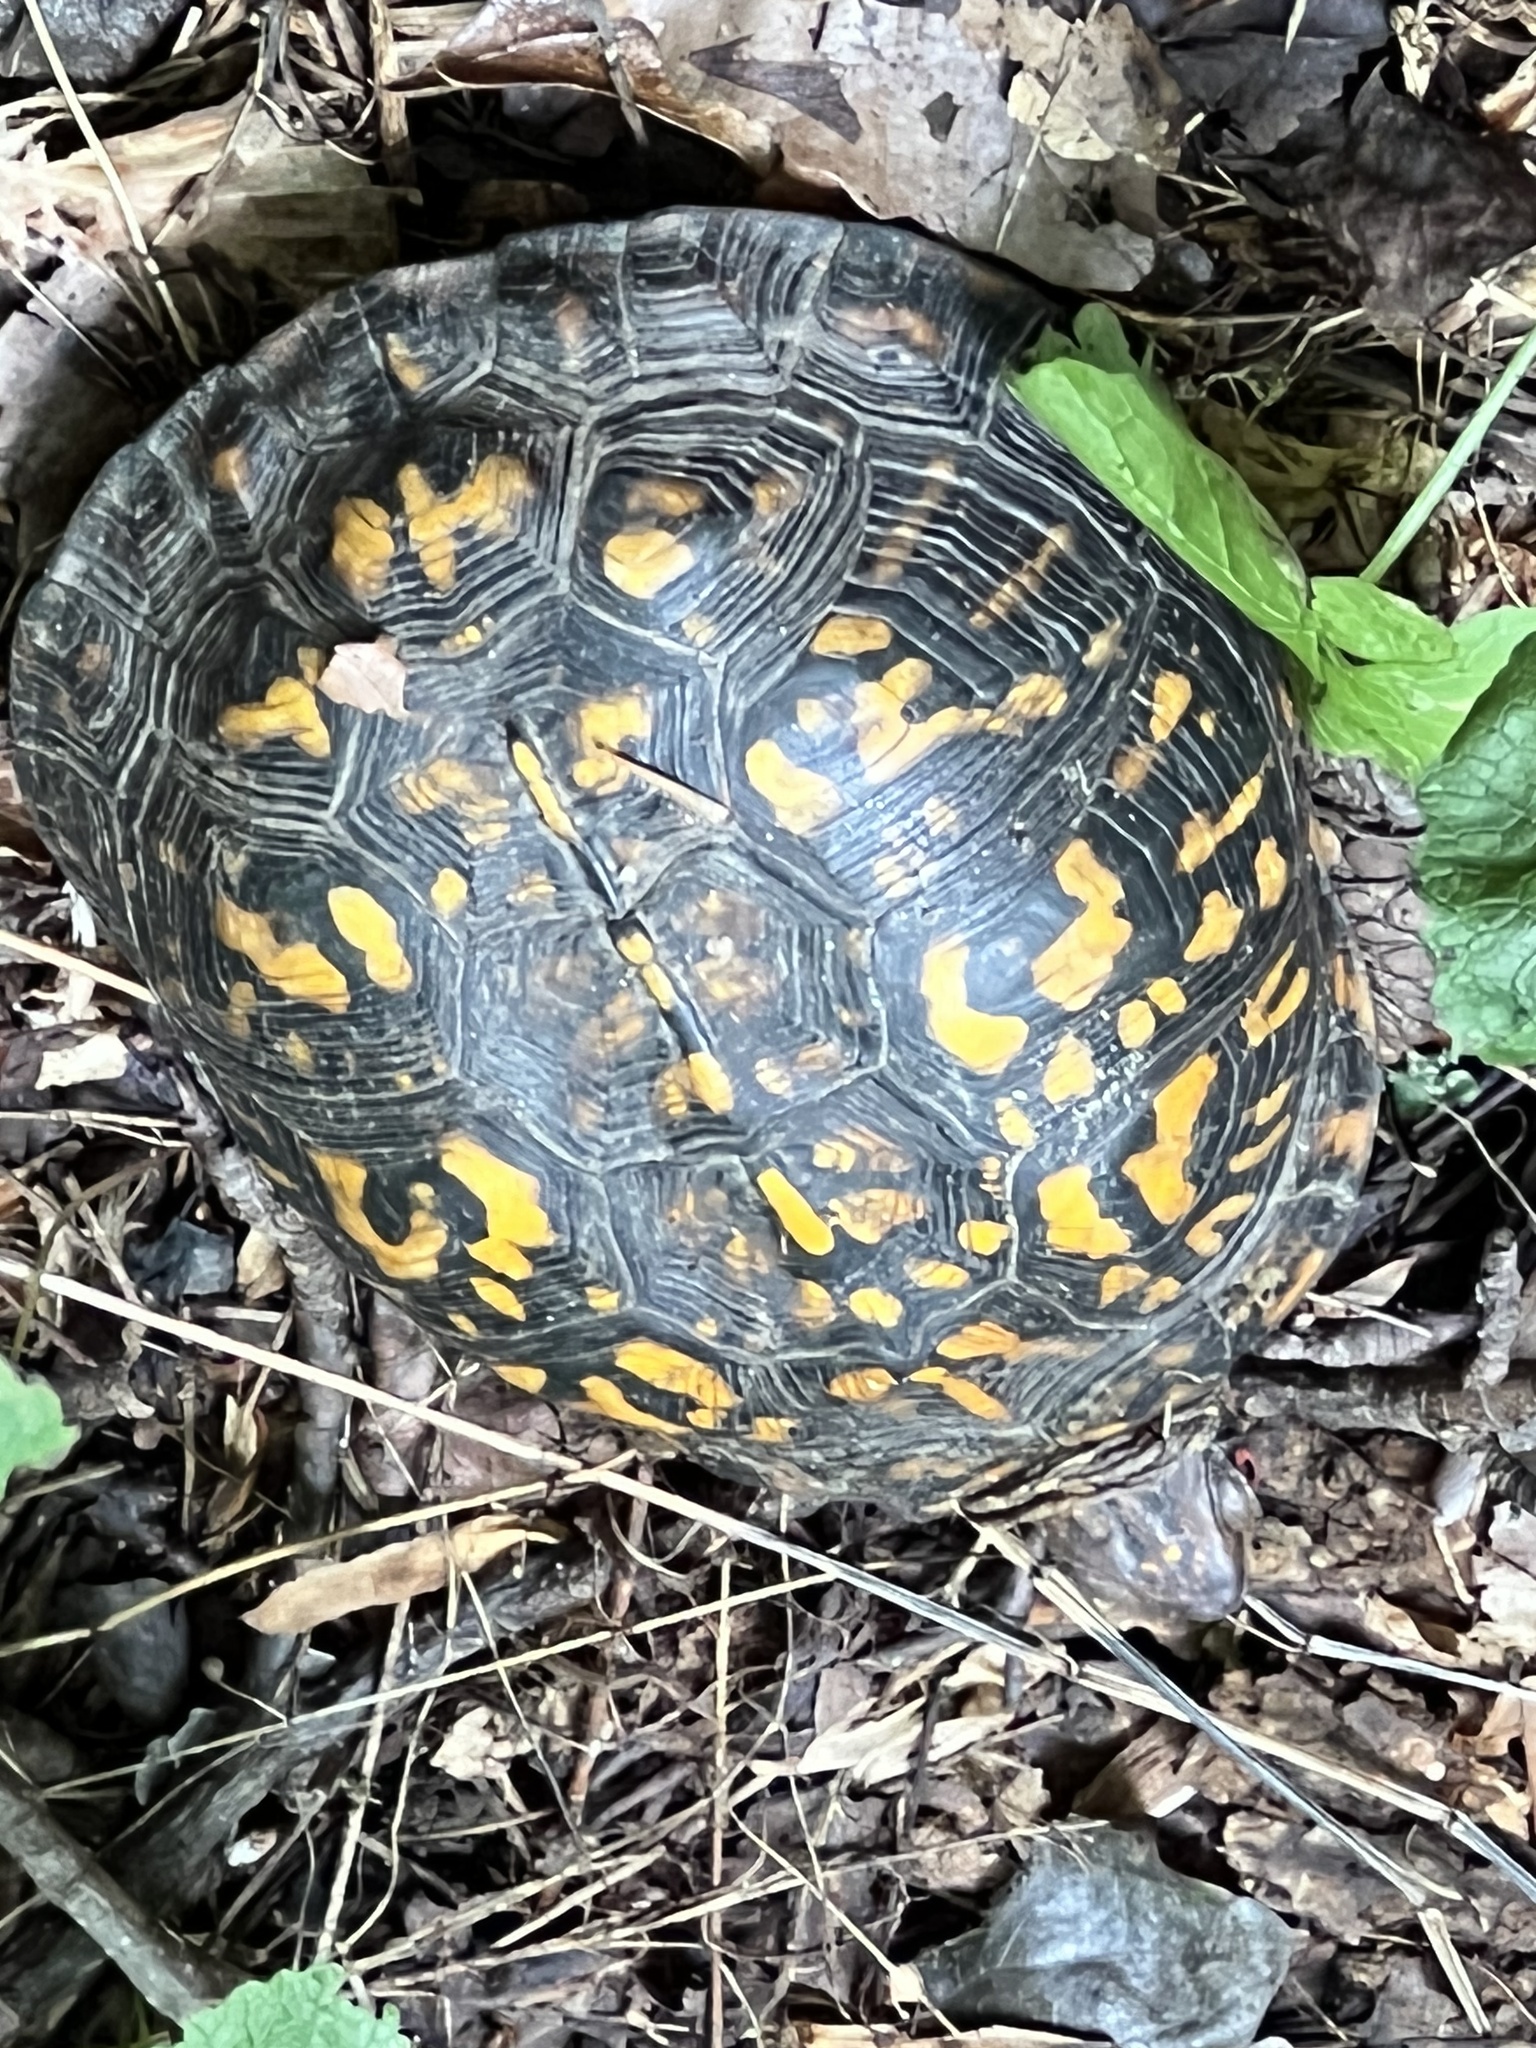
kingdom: Animalia
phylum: Chordata
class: Testudines
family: Emydidae
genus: Terrapene
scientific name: Terrapene carolina
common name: Common box turtle
